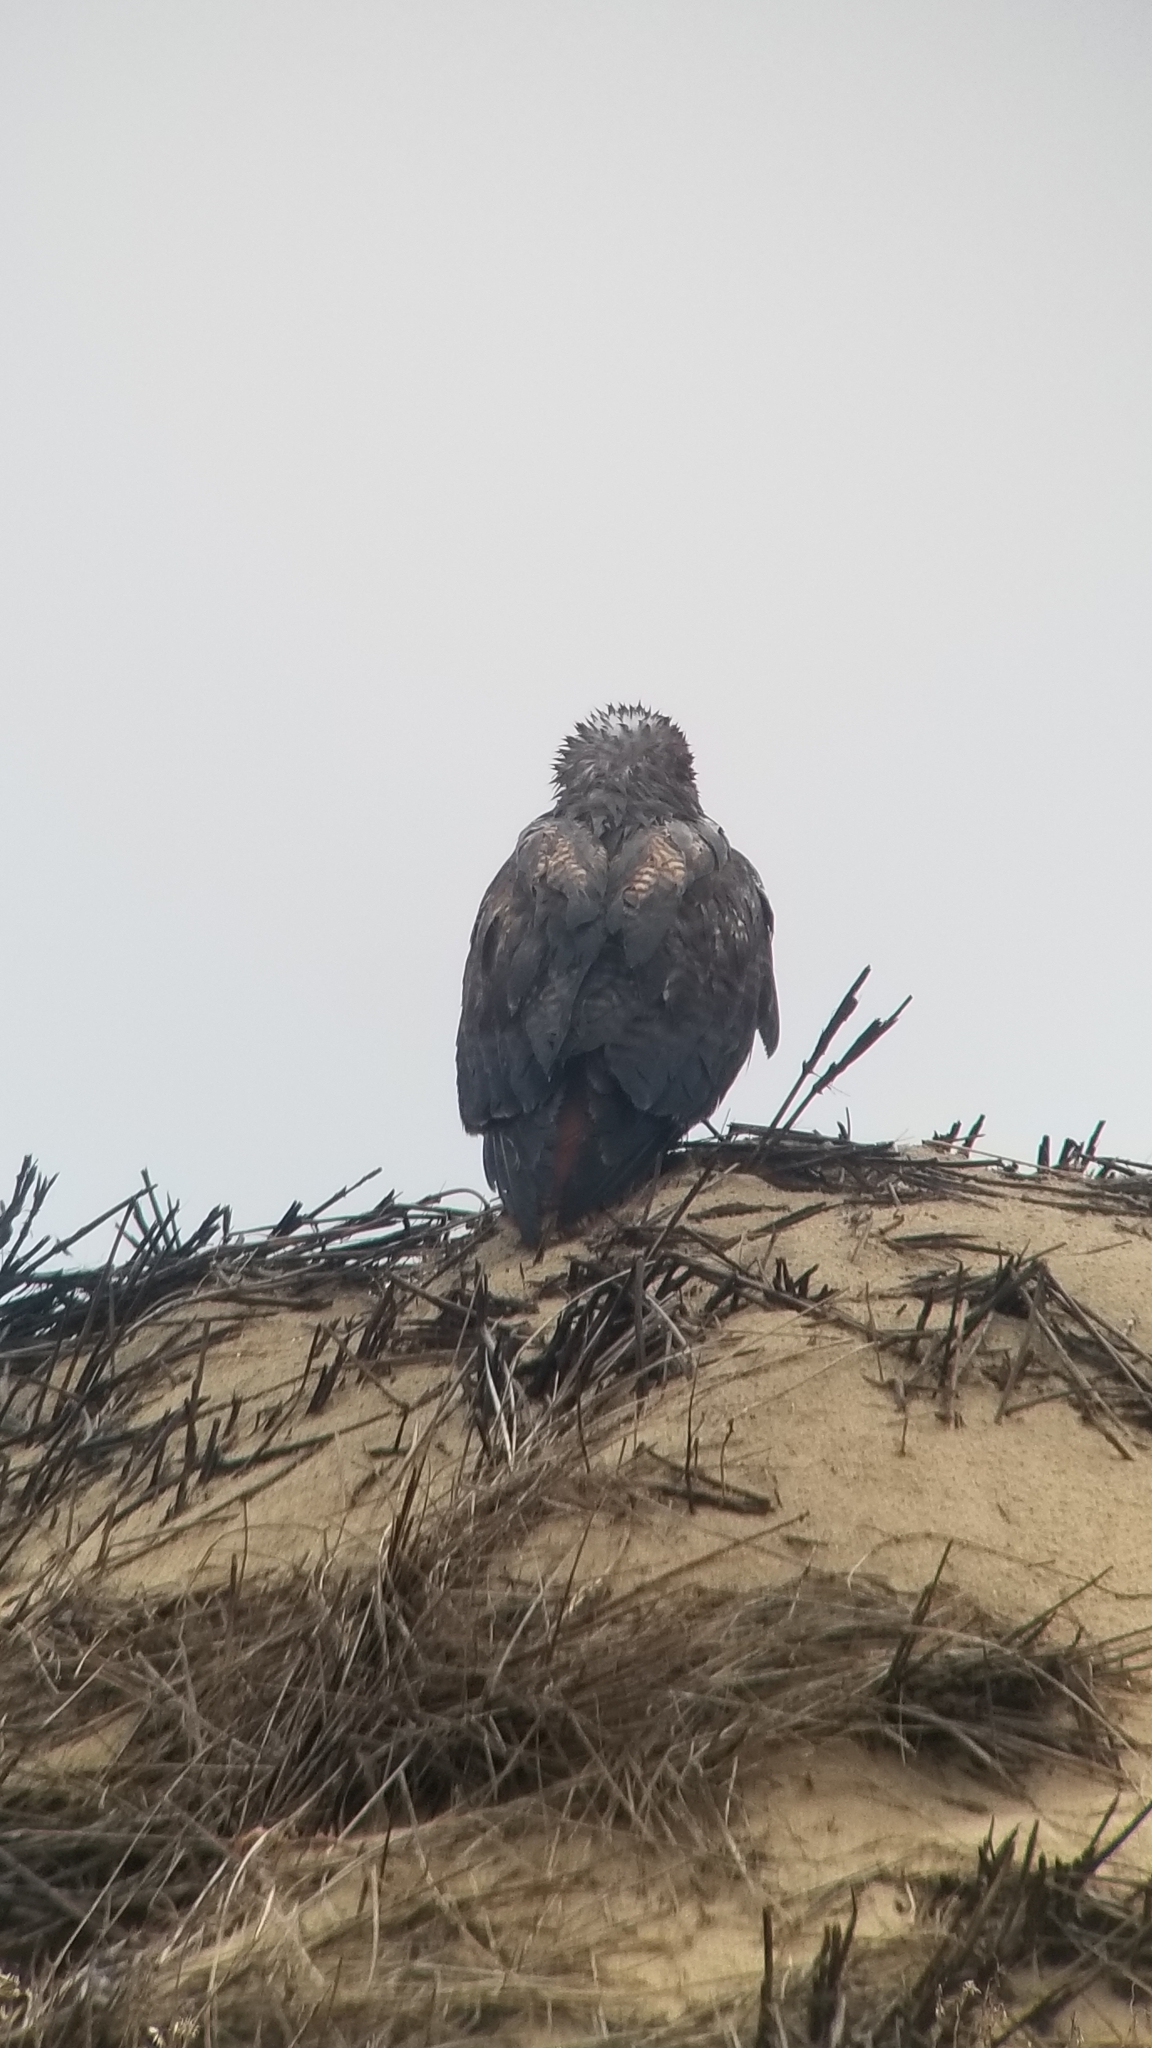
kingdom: Animalia
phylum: Chordata
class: Aves
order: Accipitriformes
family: Accipitridae
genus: Buteo
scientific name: Buteo jamaicensis
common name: Red-tailed hawk
